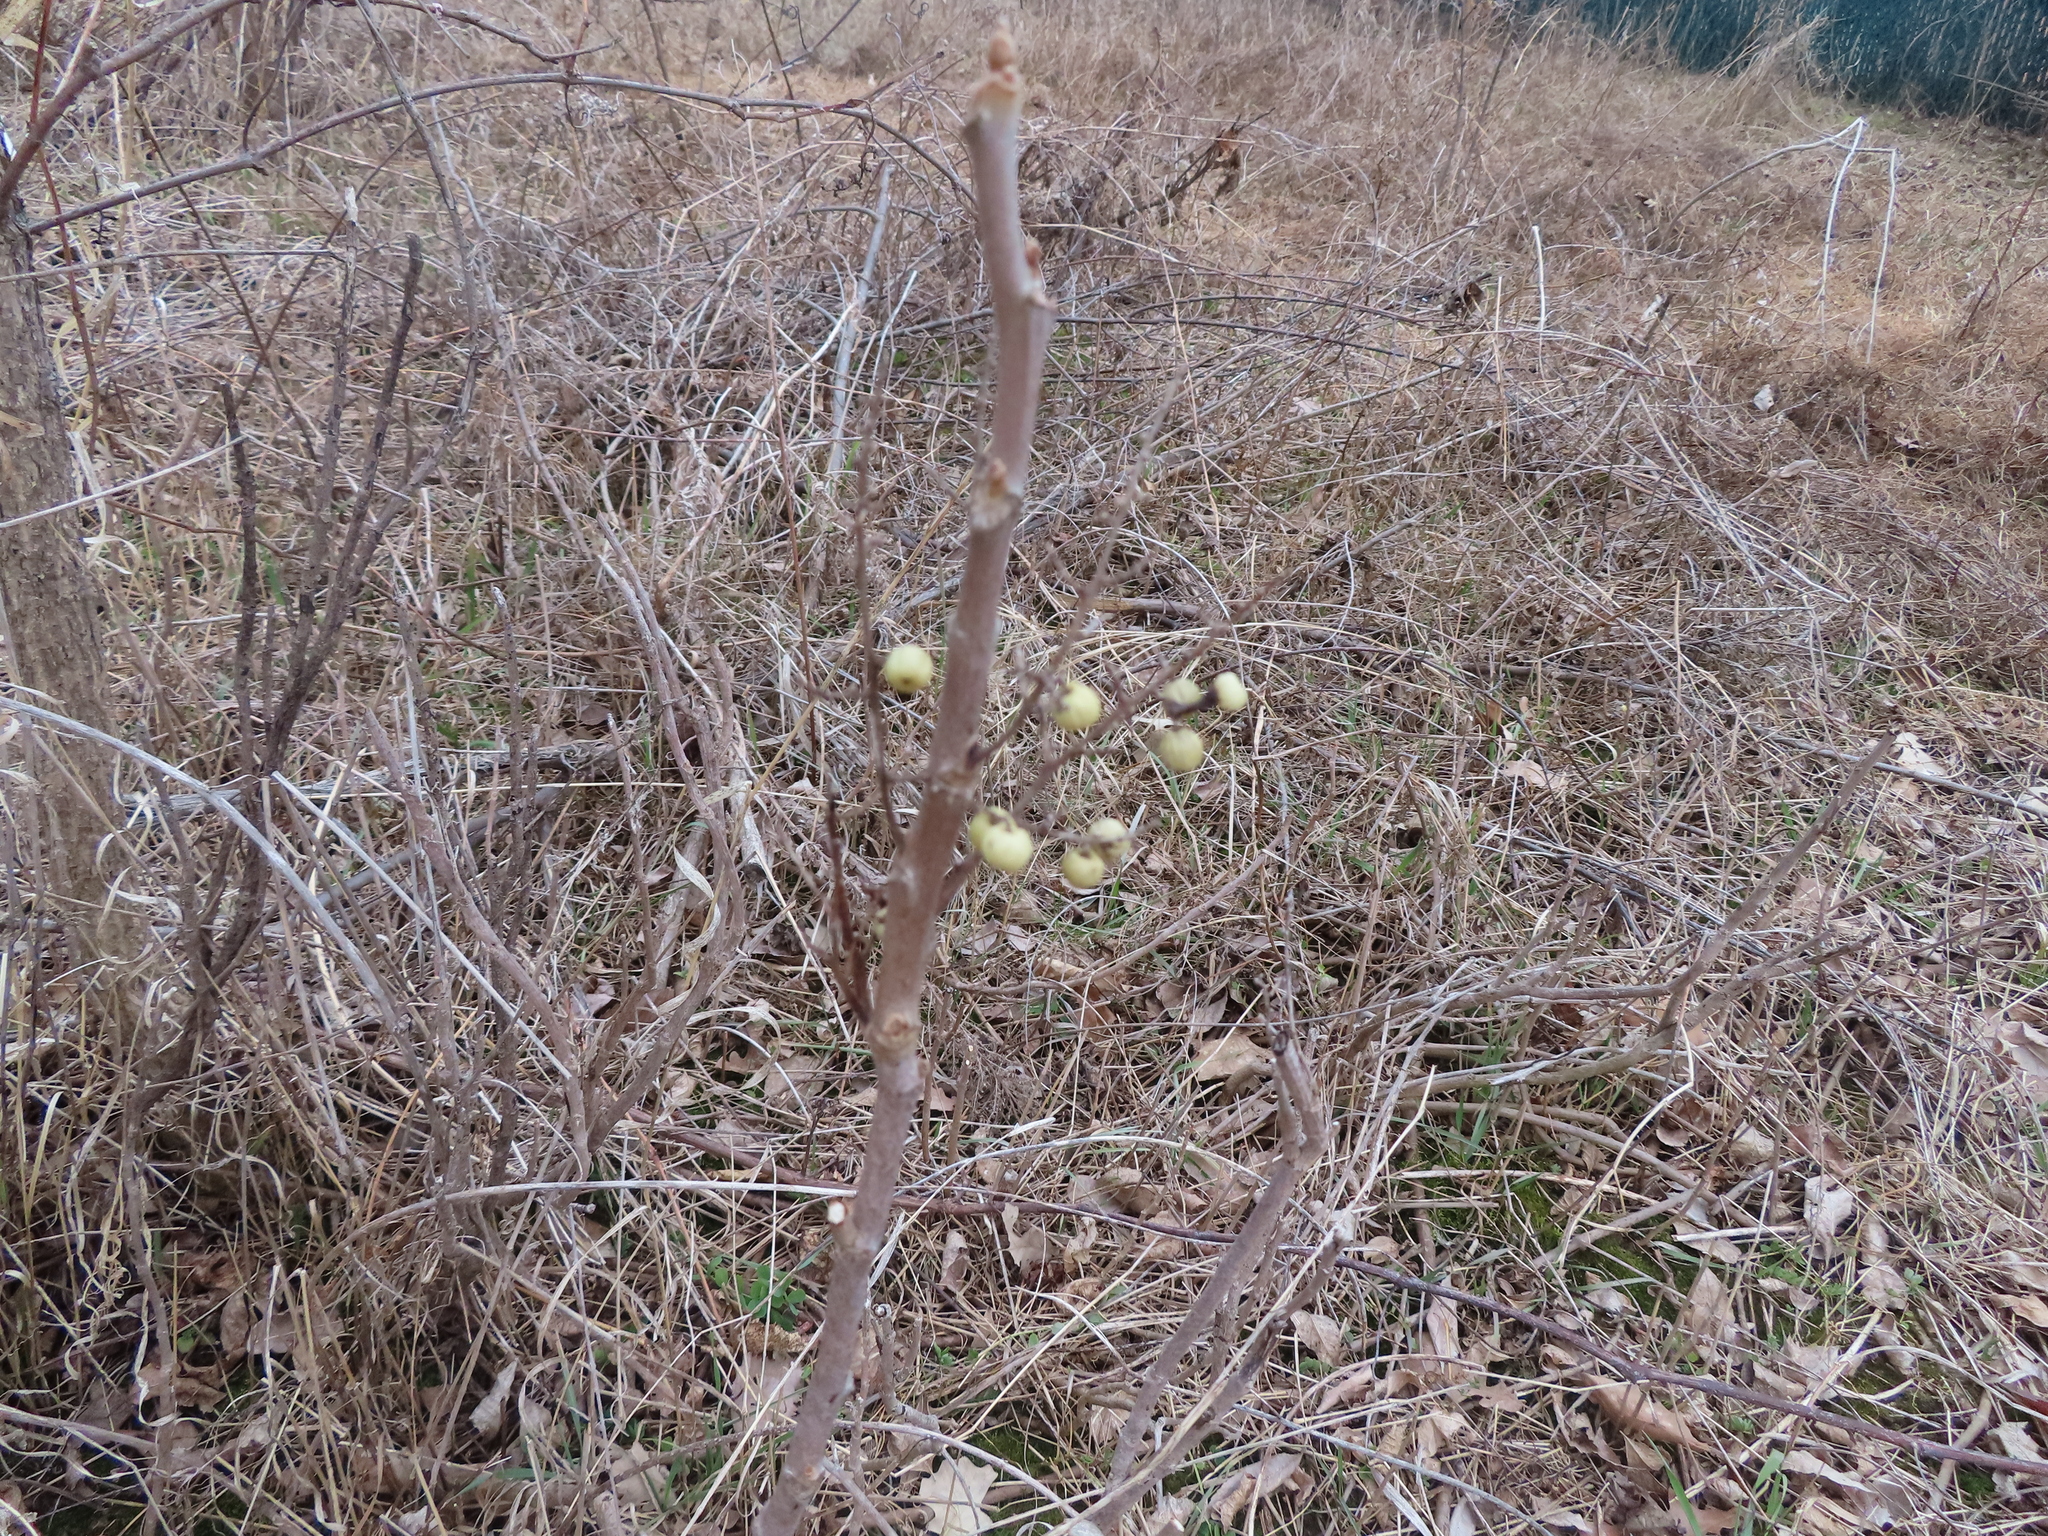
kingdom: Plantae
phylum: Tracheophyta
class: Magnoliopsida
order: Sapindales
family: Anacardiaceae
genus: Toxicodendron
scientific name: Toxicodendron rydbergii
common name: Rydberg's poison-ivy
